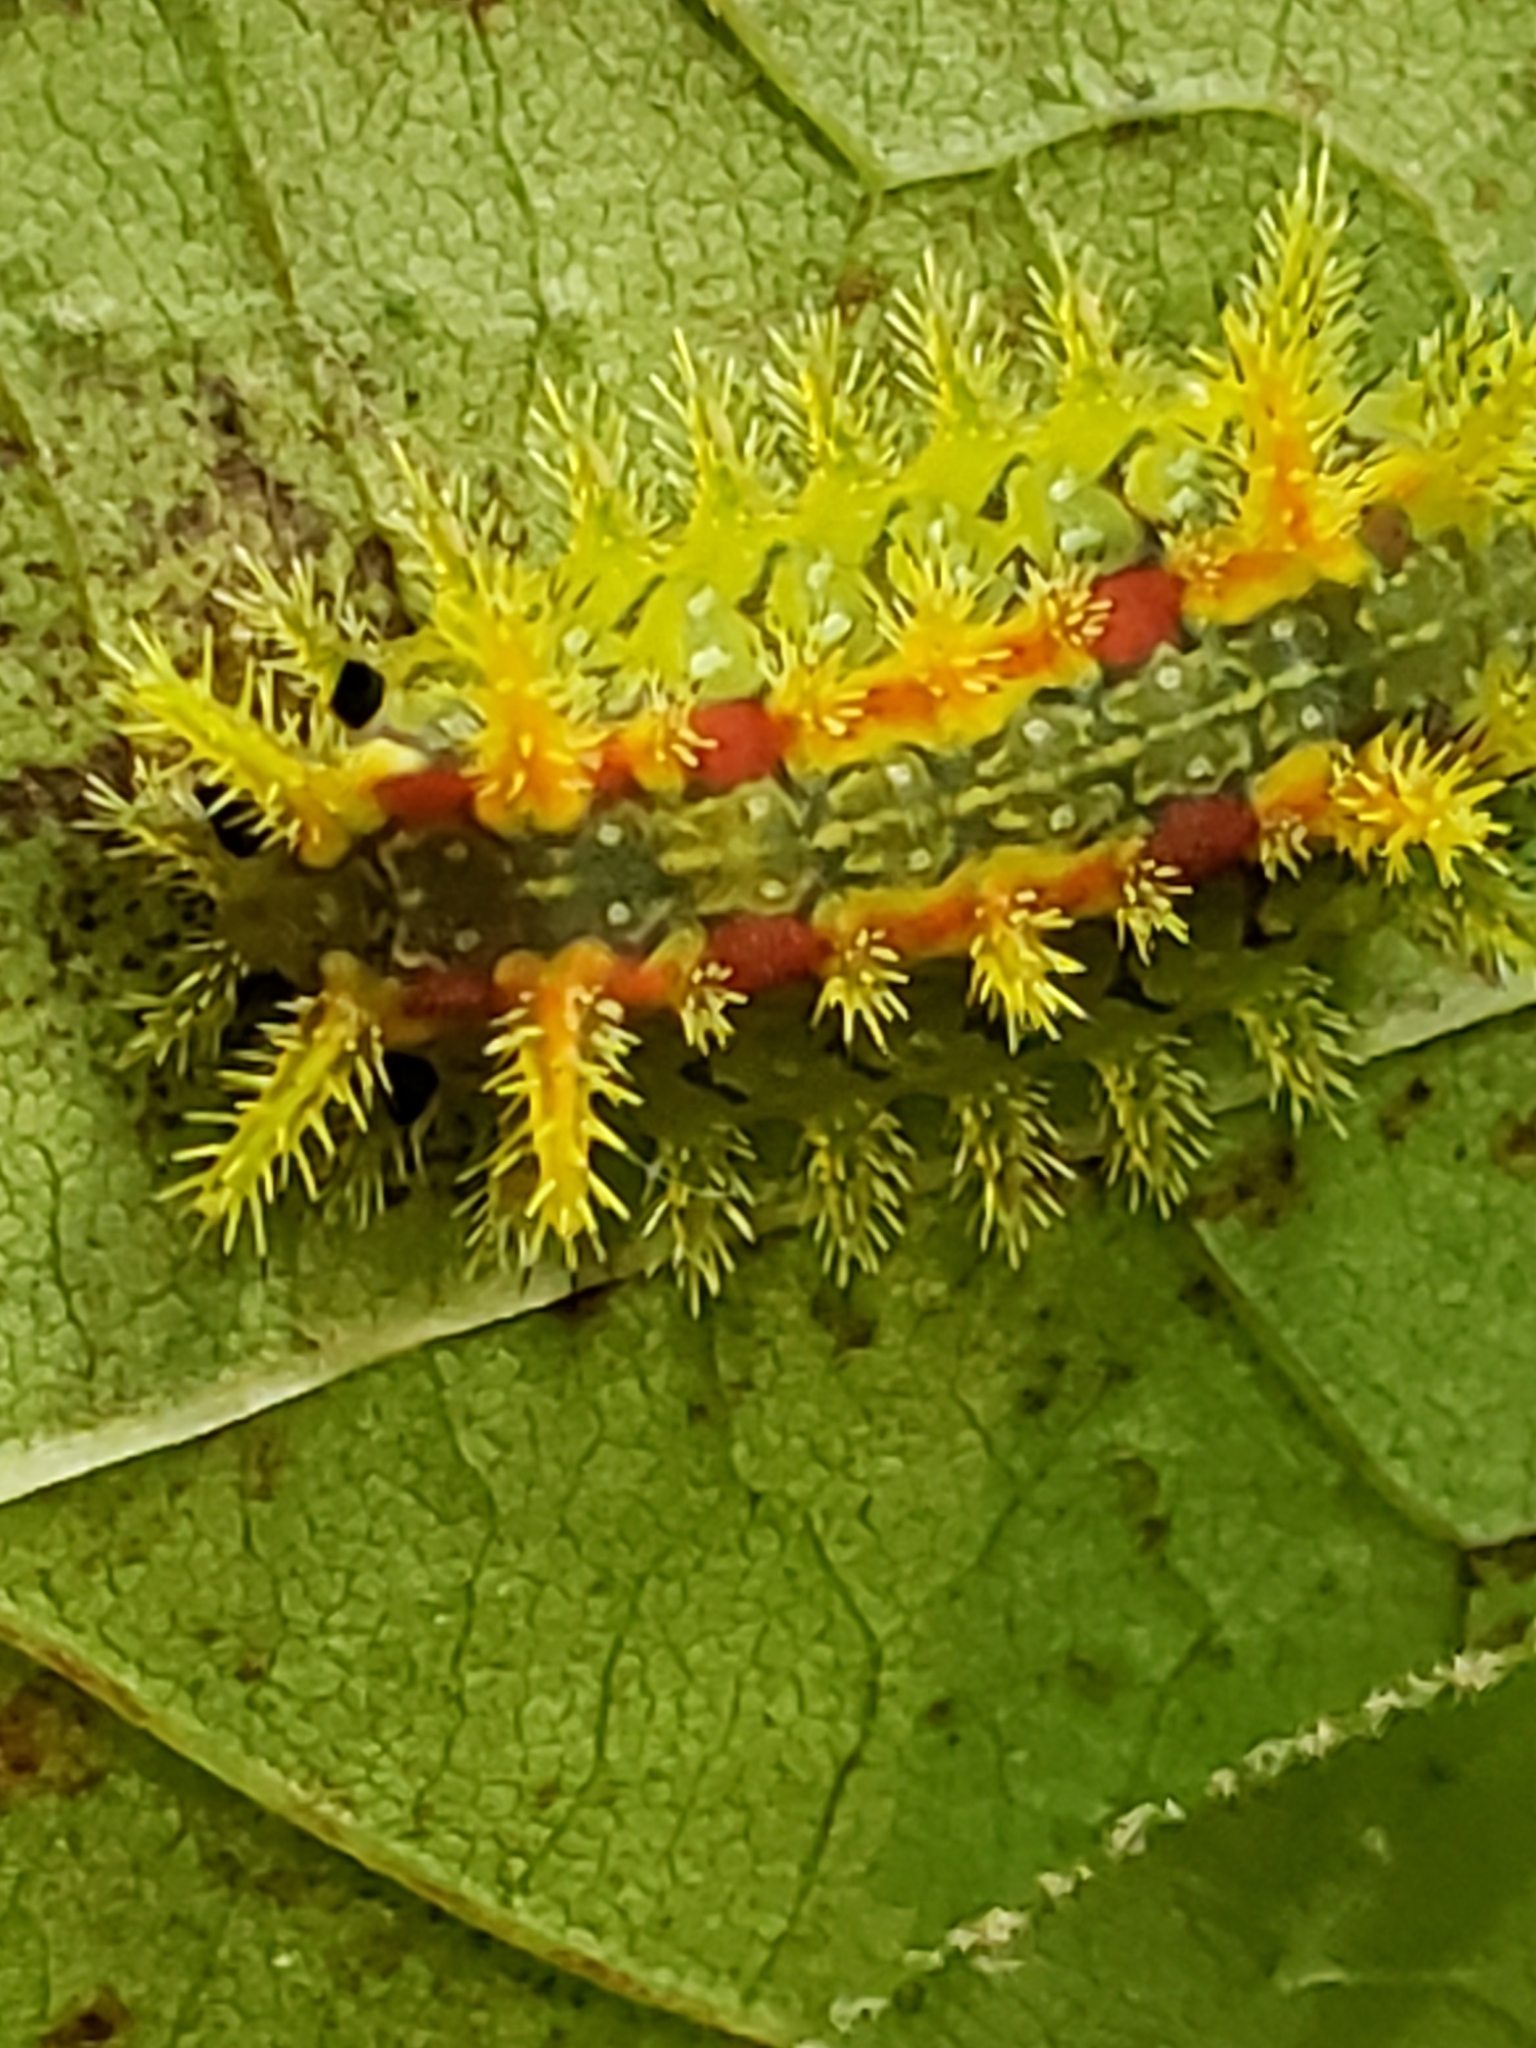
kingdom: Animalia
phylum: Arthropoda
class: Insecta
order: Lepidoptera
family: Limacodidae
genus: Euclea
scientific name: Euclea delphinii
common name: Spiny oak-slug moth
